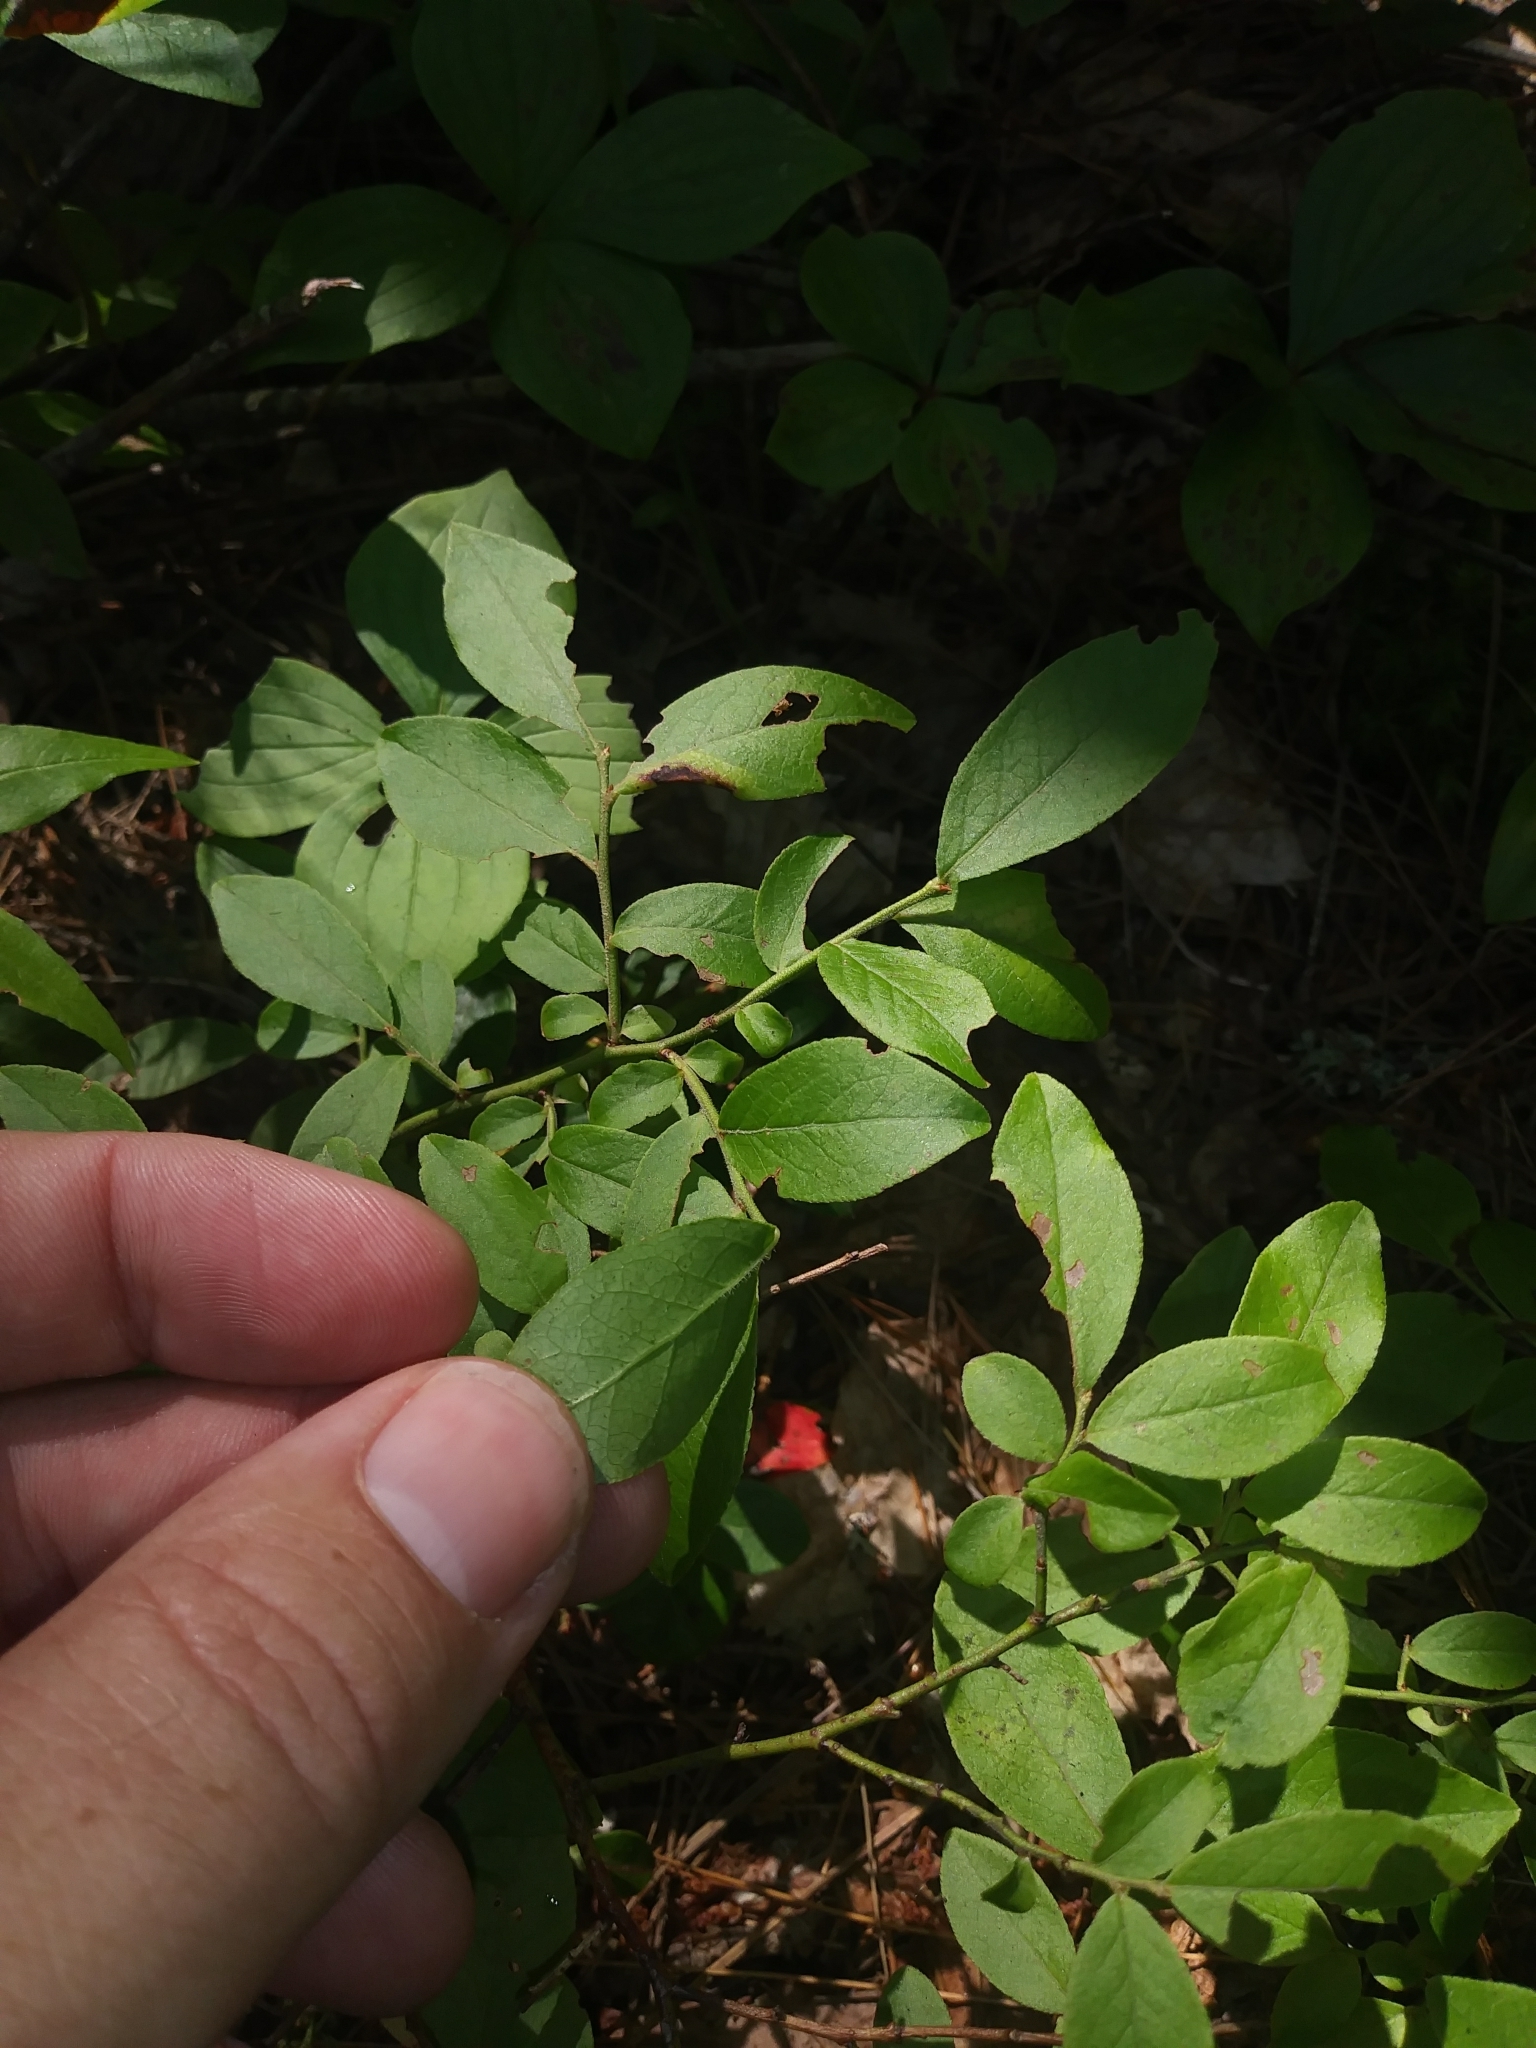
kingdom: Plantae
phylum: Tracheophyta
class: Magnoliopsida
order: Ericales
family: Ericaceae
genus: Vaccinium
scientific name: Vaccinium angustifolium
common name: Early lowbush blueberry
